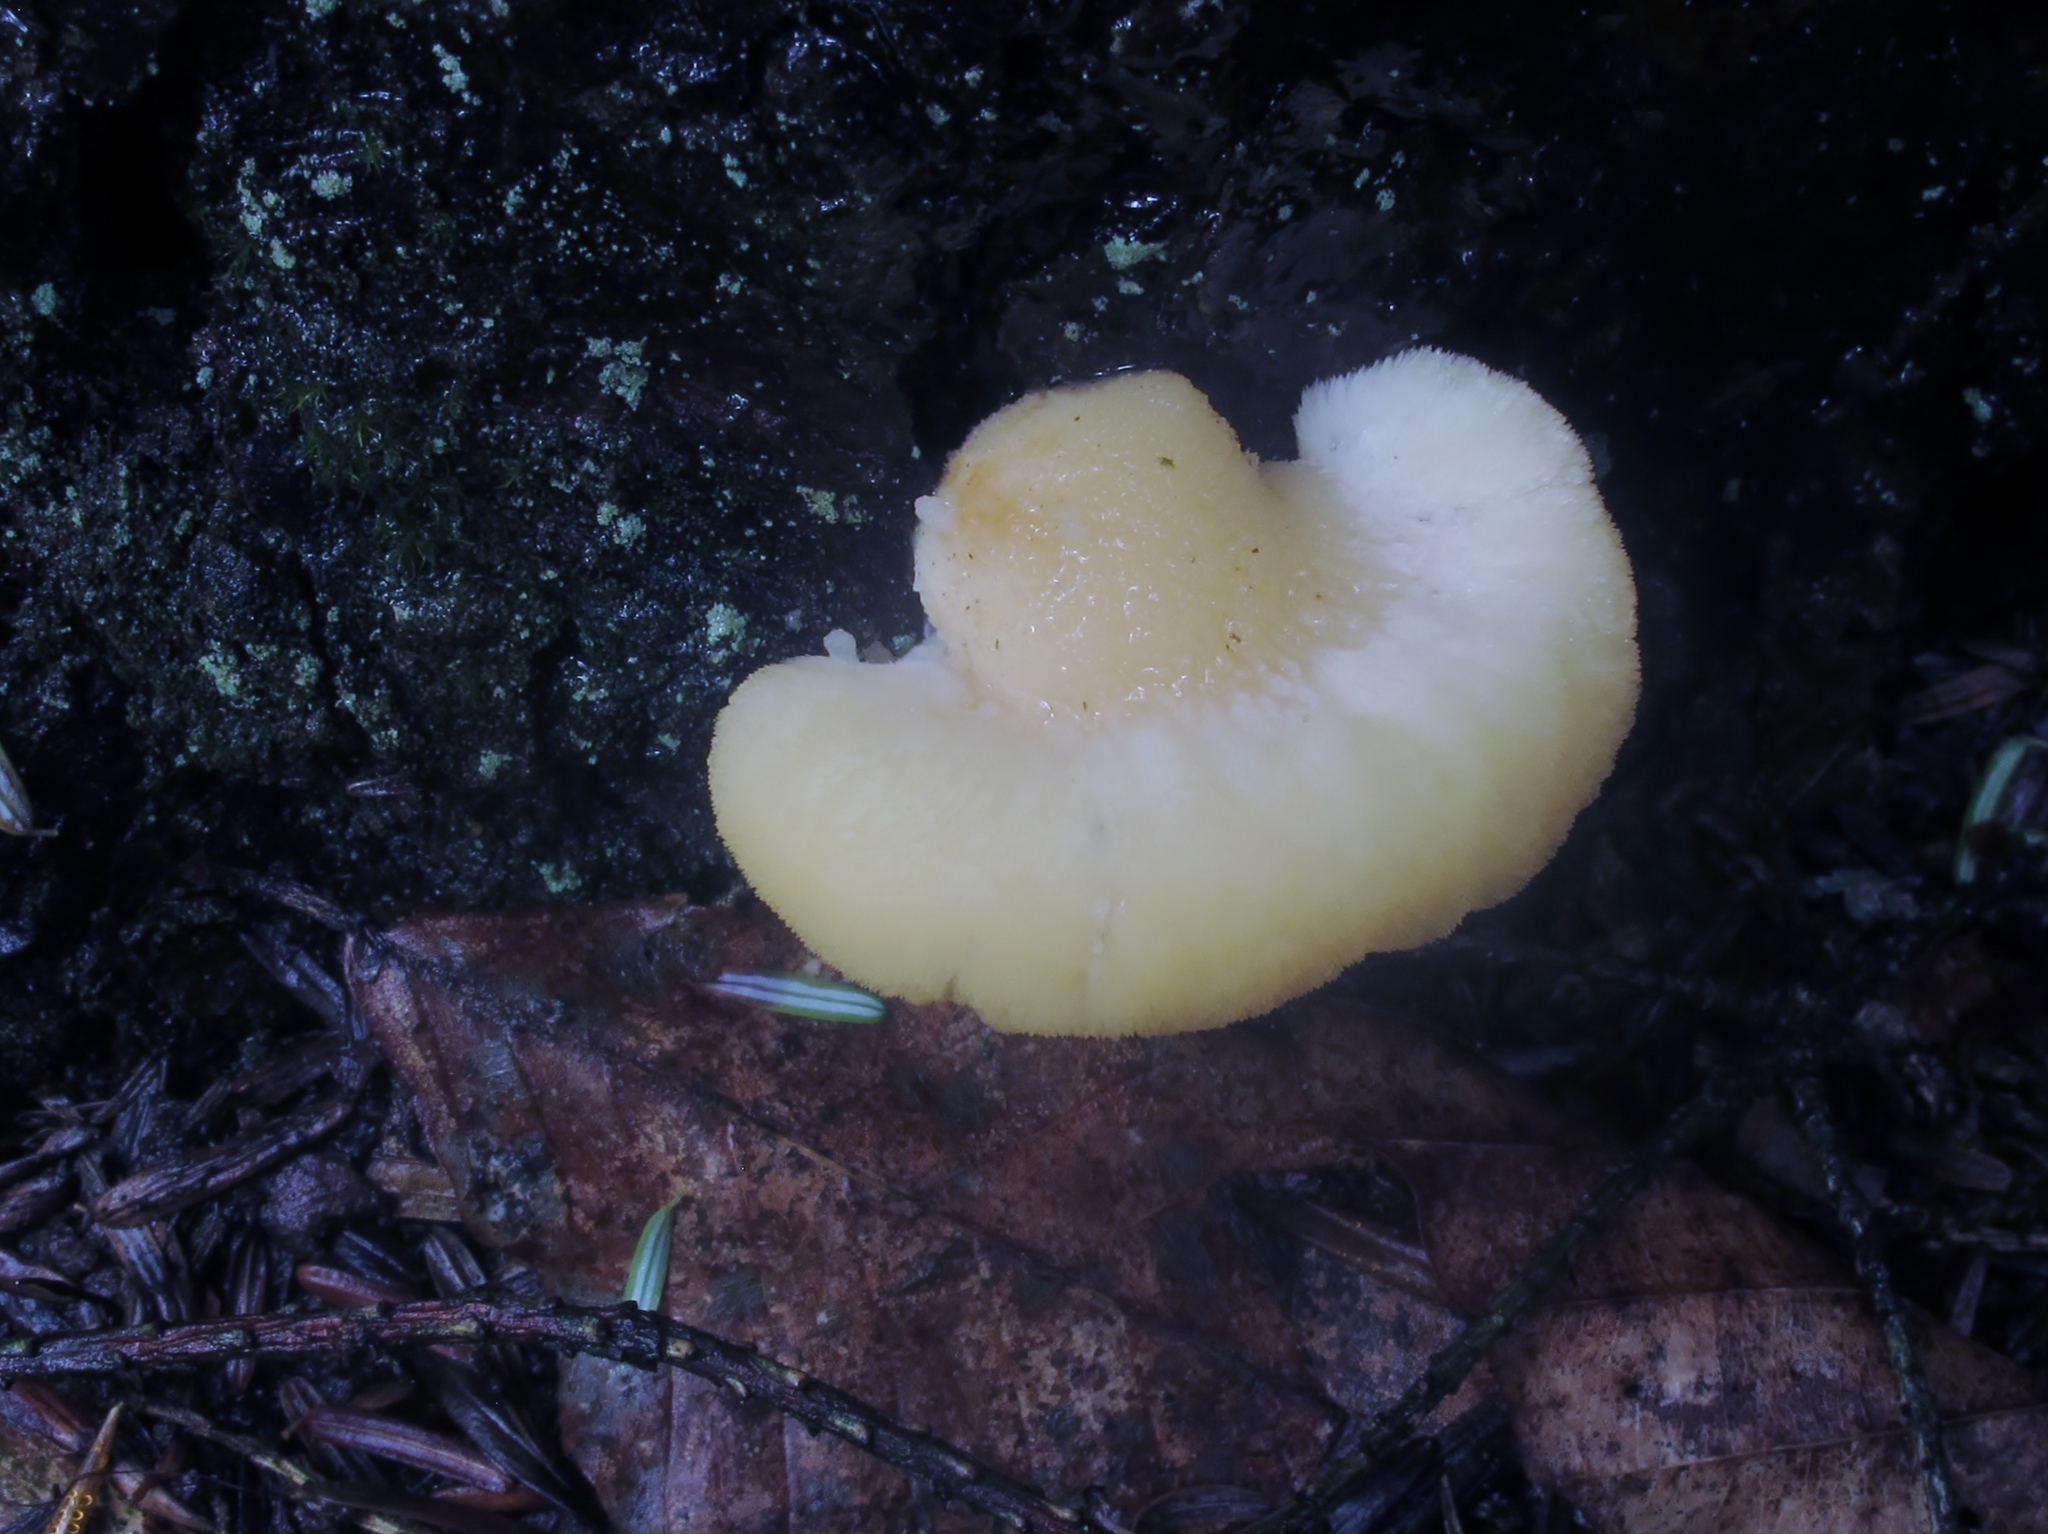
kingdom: Fungi
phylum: Basidiomycota
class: Agaricomycetes
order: Polyporales
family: Fomitopsidaceae
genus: Climacocystis
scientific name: Climacocystis borealis
